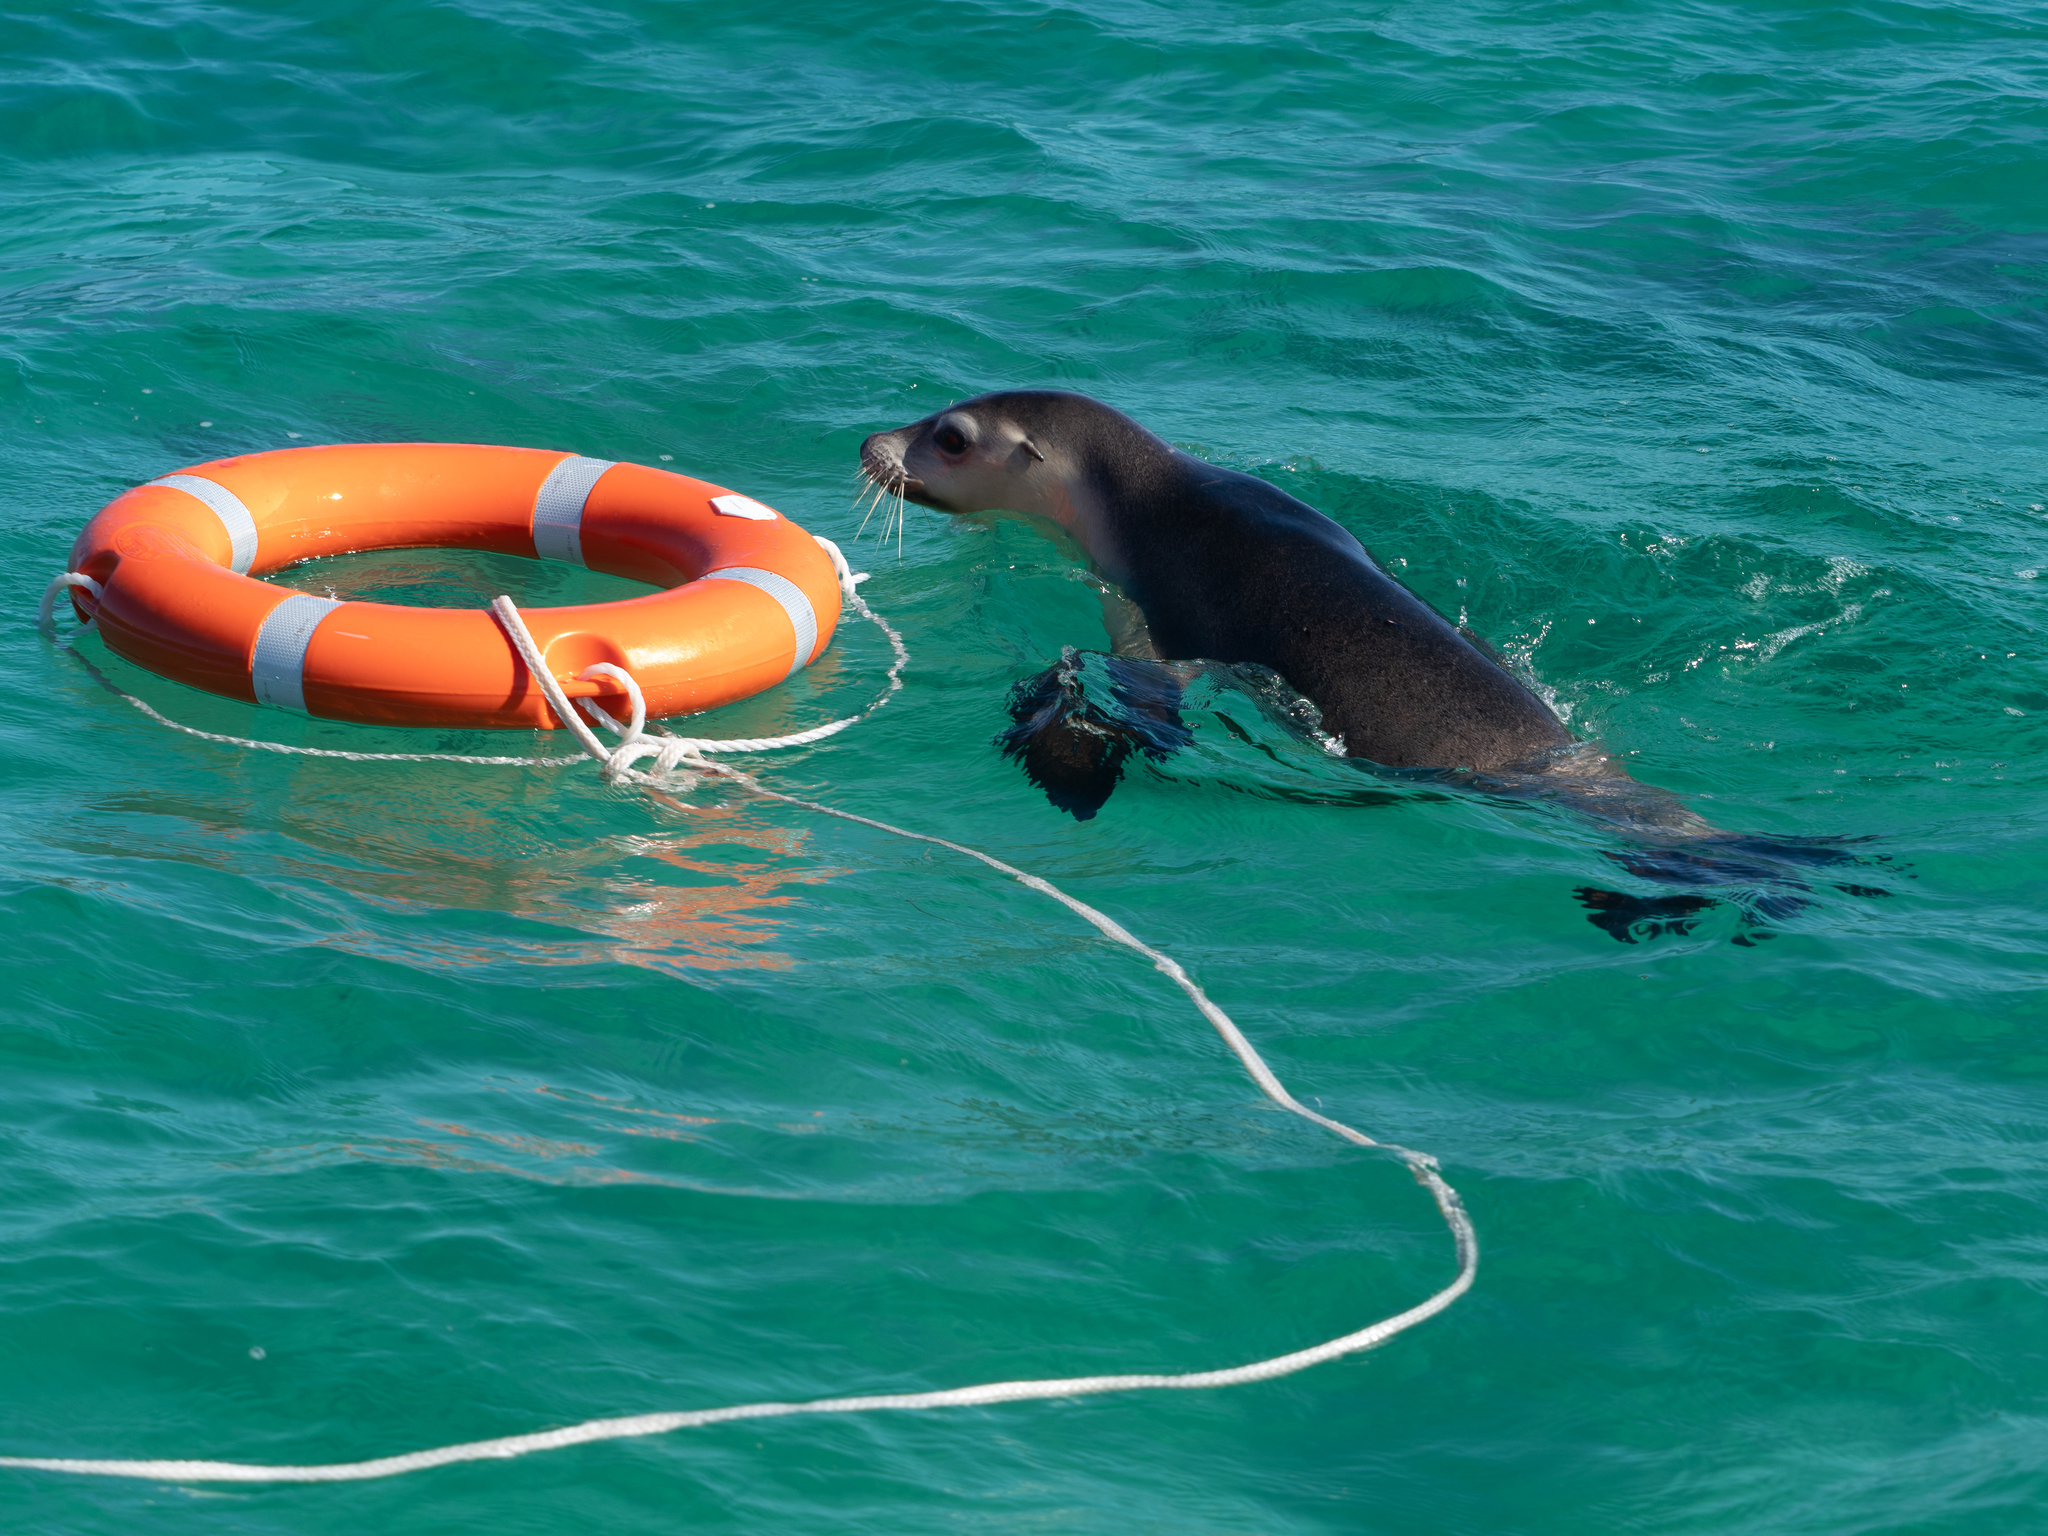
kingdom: Animalia
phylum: Chordata
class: Mammalia
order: Carnivora
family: Otariidae
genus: Neophoca
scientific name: Neophoca cinerea
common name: Australian sea lion
